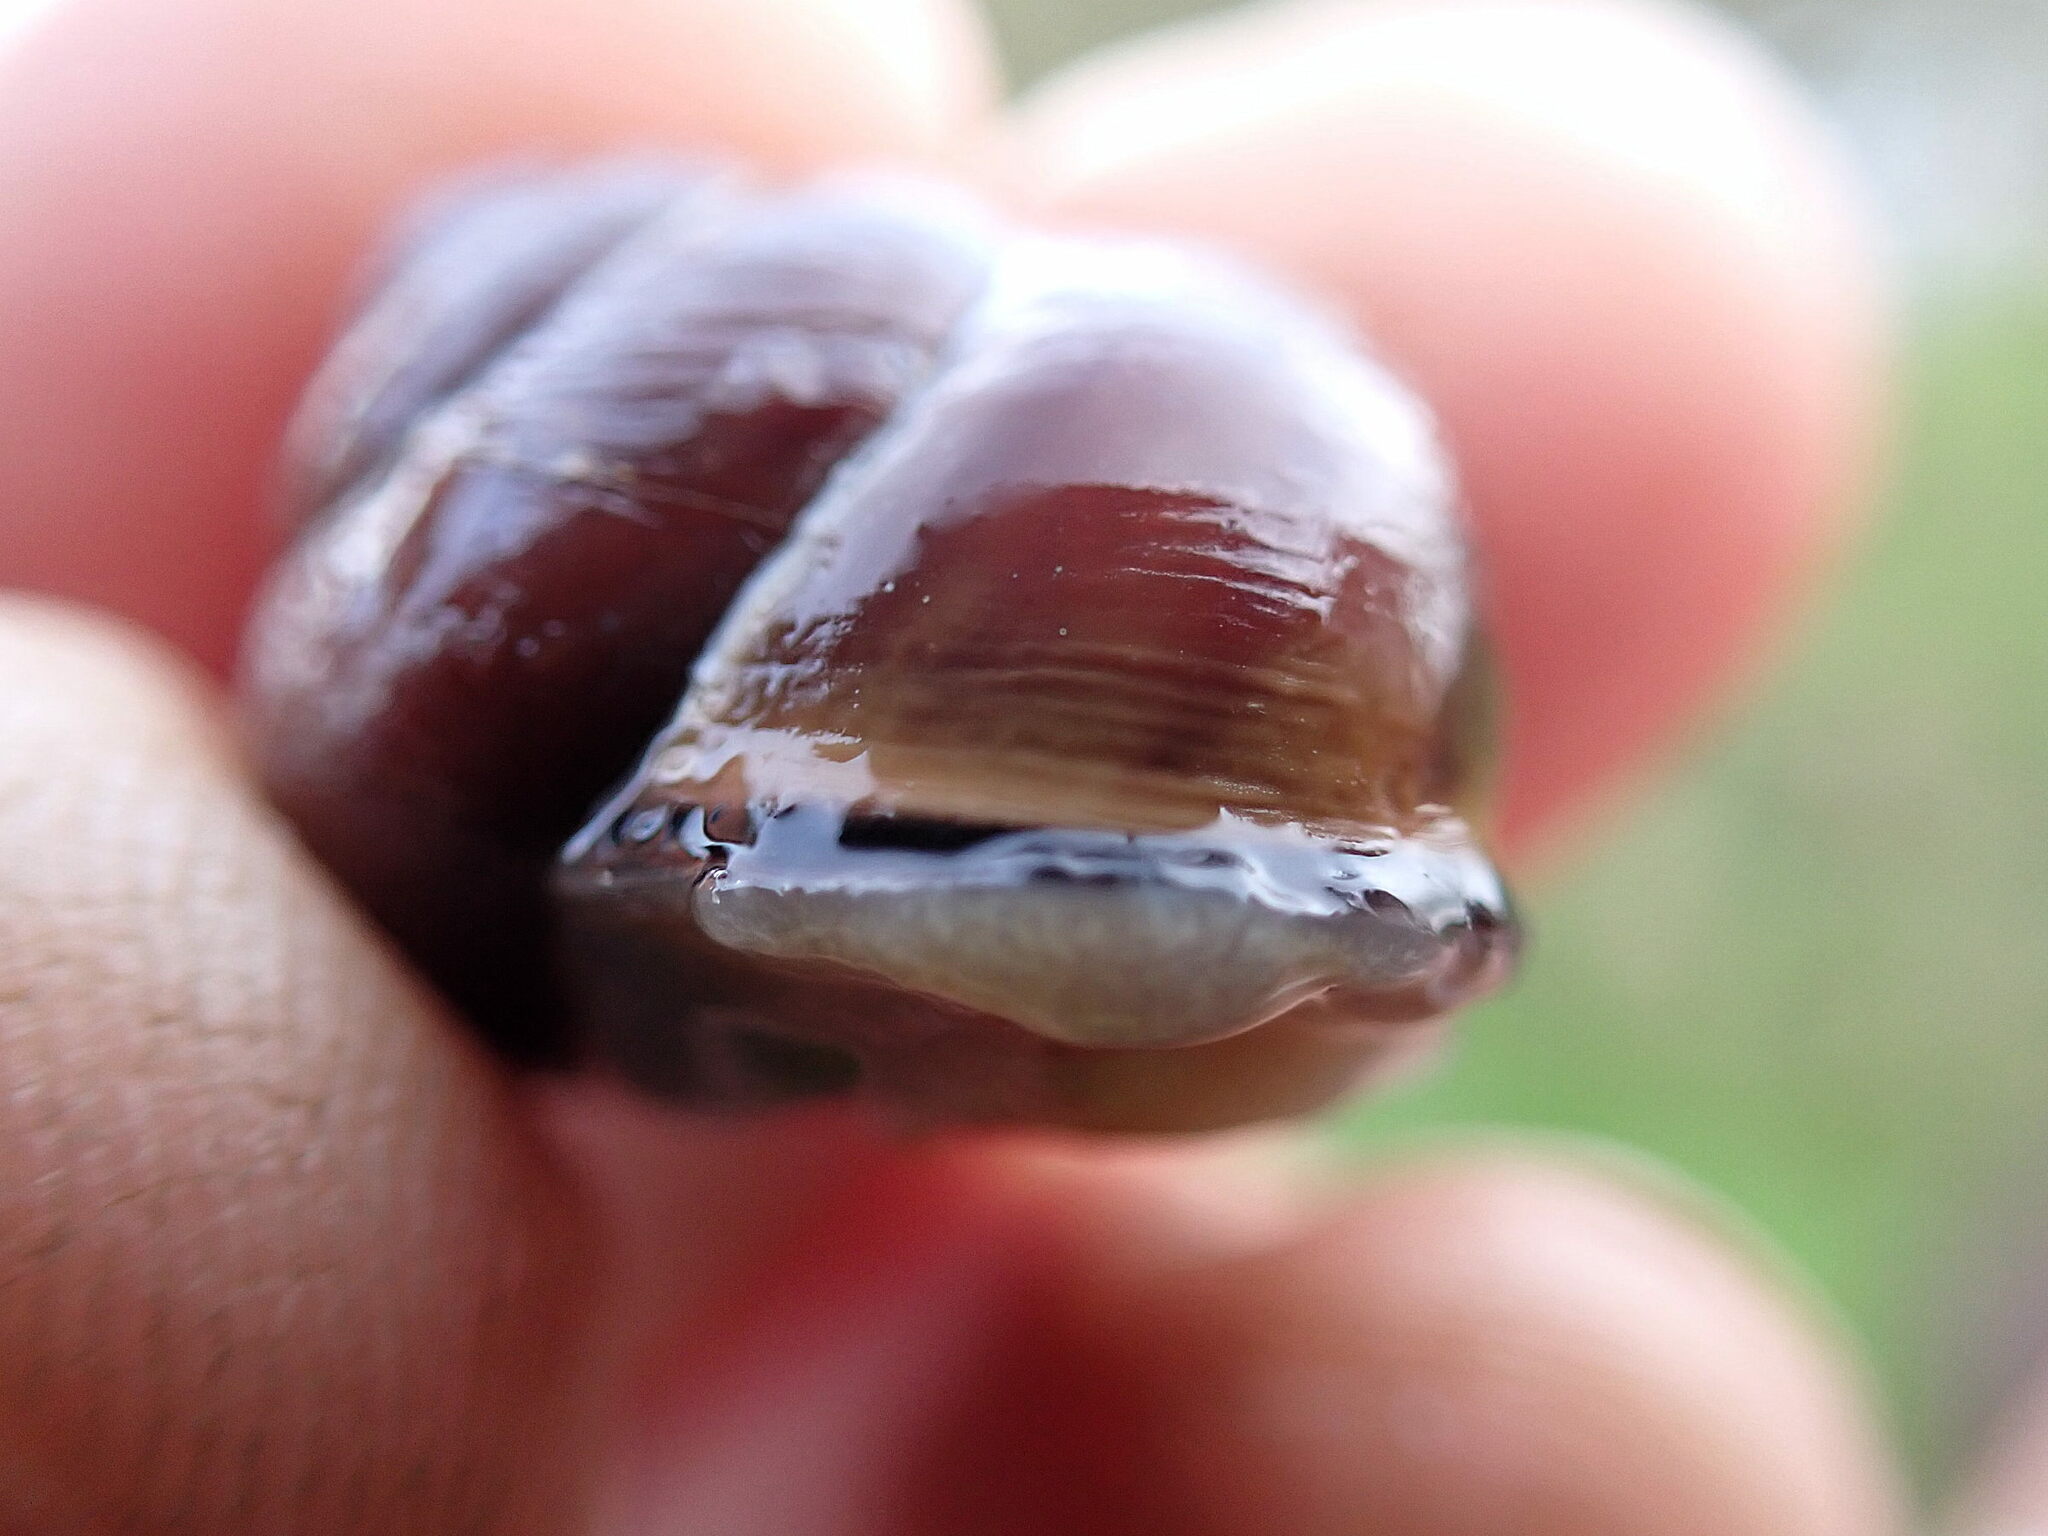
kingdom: Animalia
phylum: Mollusca
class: Gastropoda
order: Stylommatophora
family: Helicidae
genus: Cepaea
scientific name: Cepaea nemoralis
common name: Grovesnail
